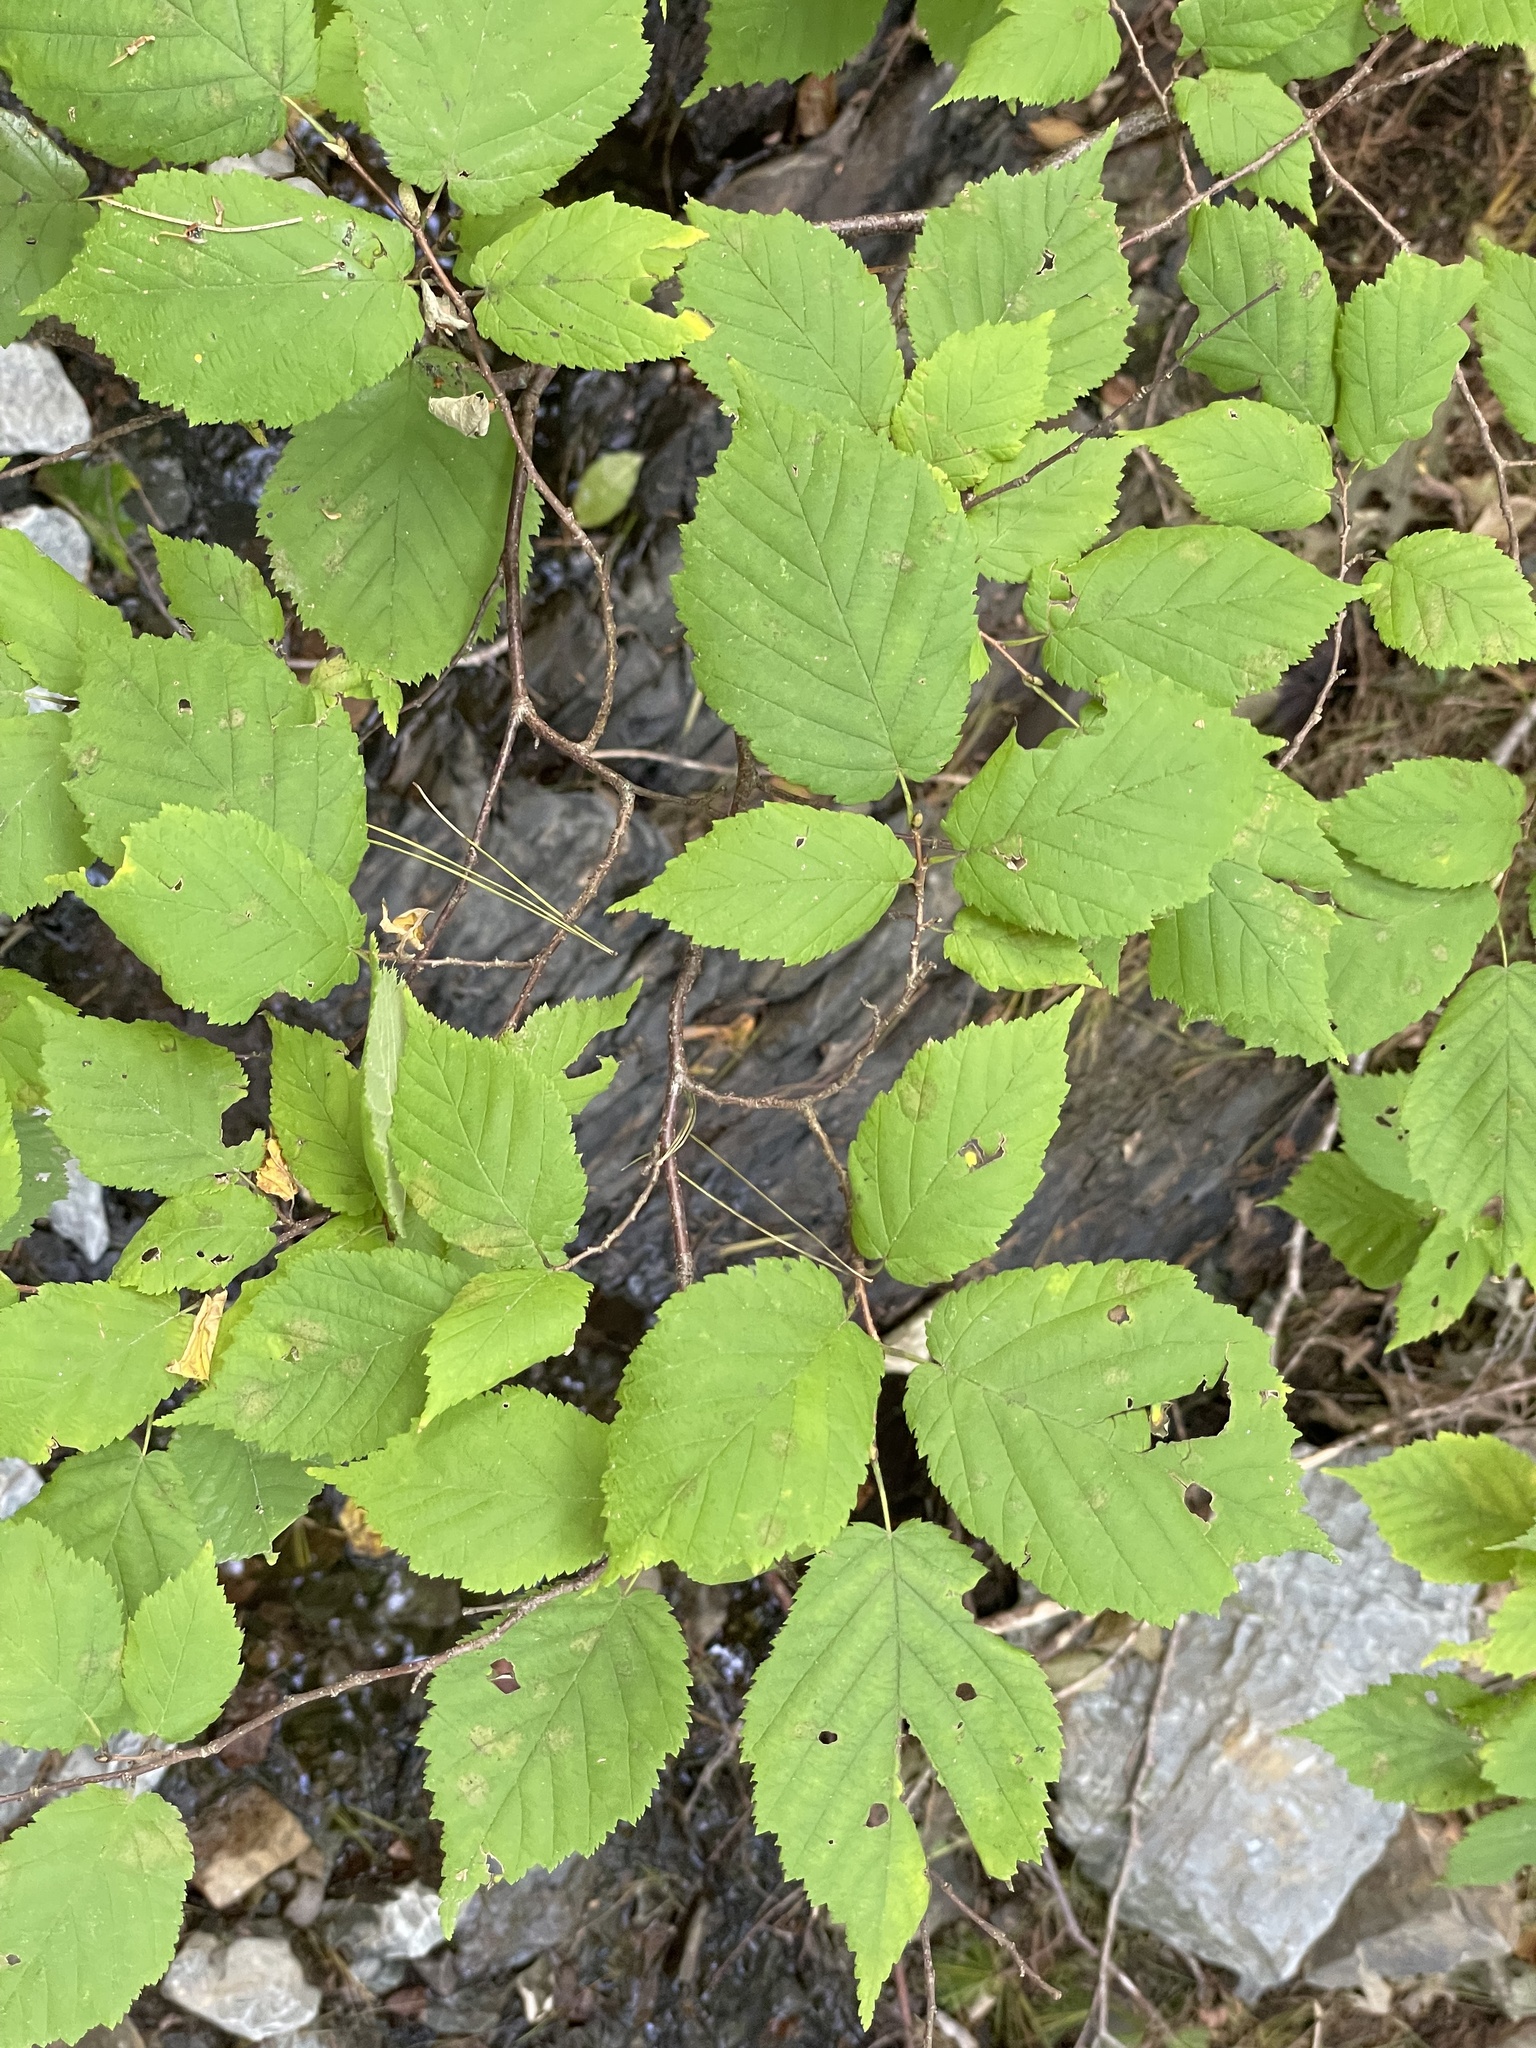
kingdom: Plantae
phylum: Tracheophyta
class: Magnoliopsida
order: Fagales
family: Betulaceae
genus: Corylus
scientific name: Corylus cornuta
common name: Beaked hazel
